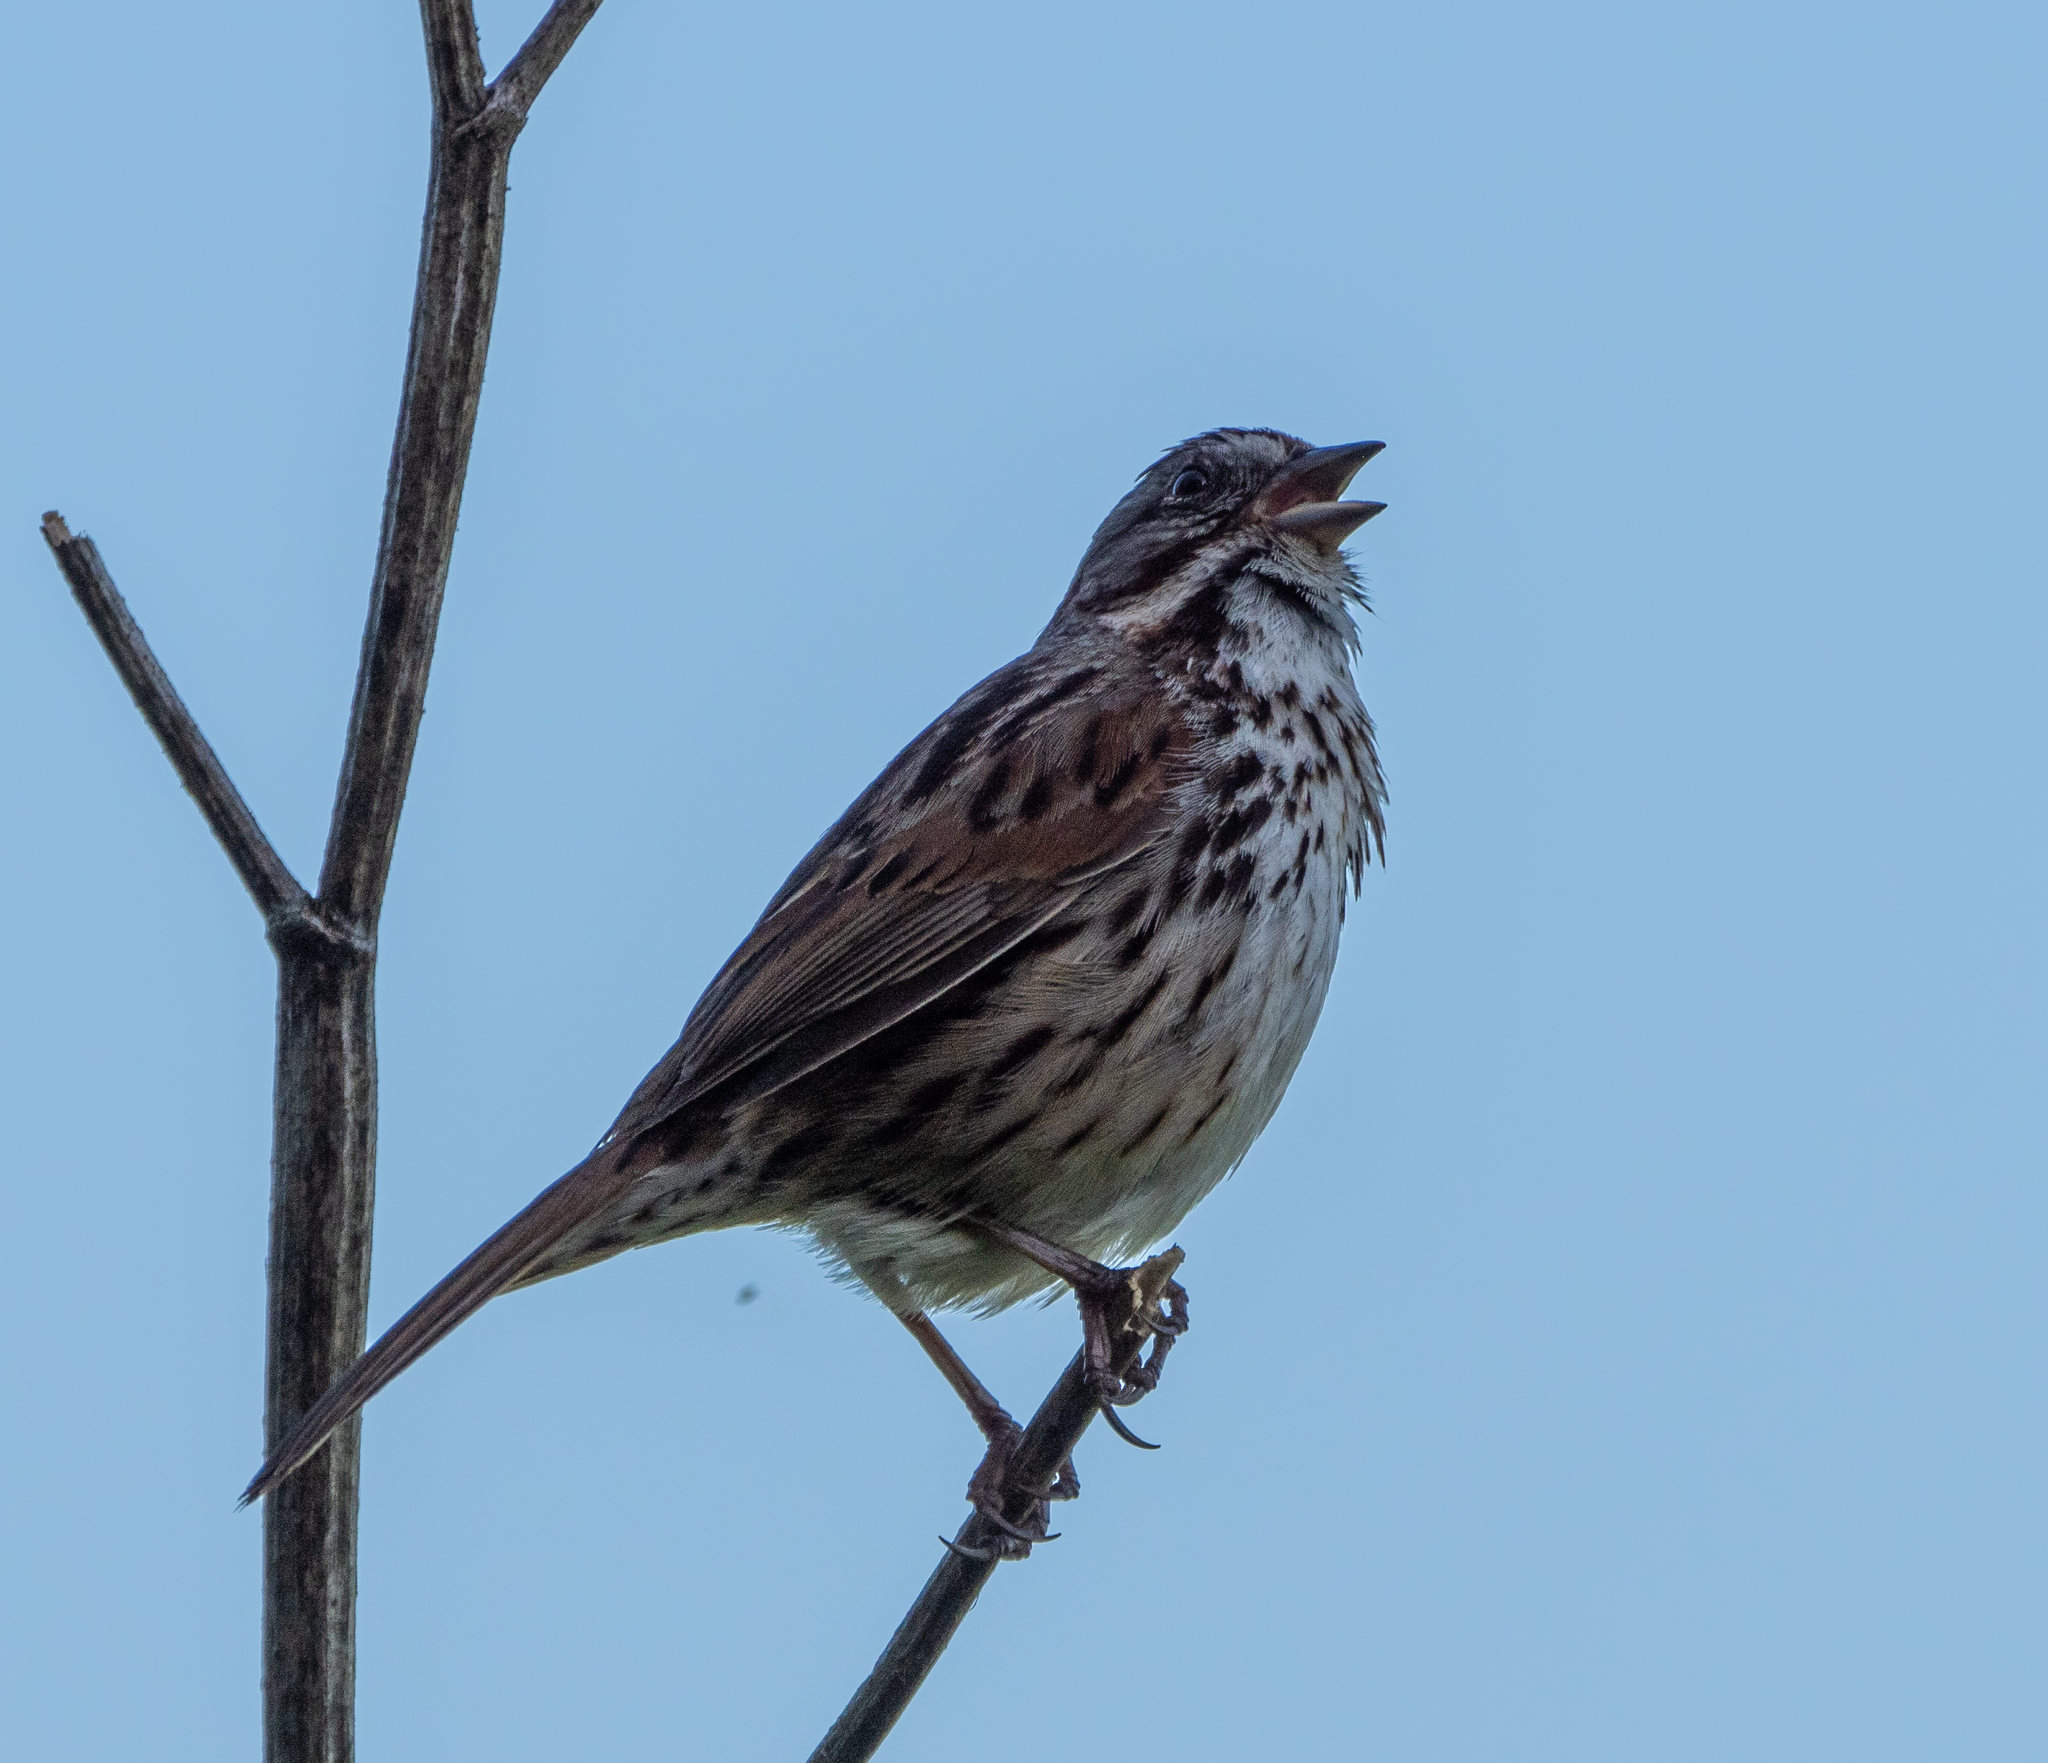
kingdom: Animalia
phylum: Chordata
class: Aves
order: Passeriformes
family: Passerellidae
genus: Melospiza
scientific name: Melospiza melodia
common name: Song sparrow
